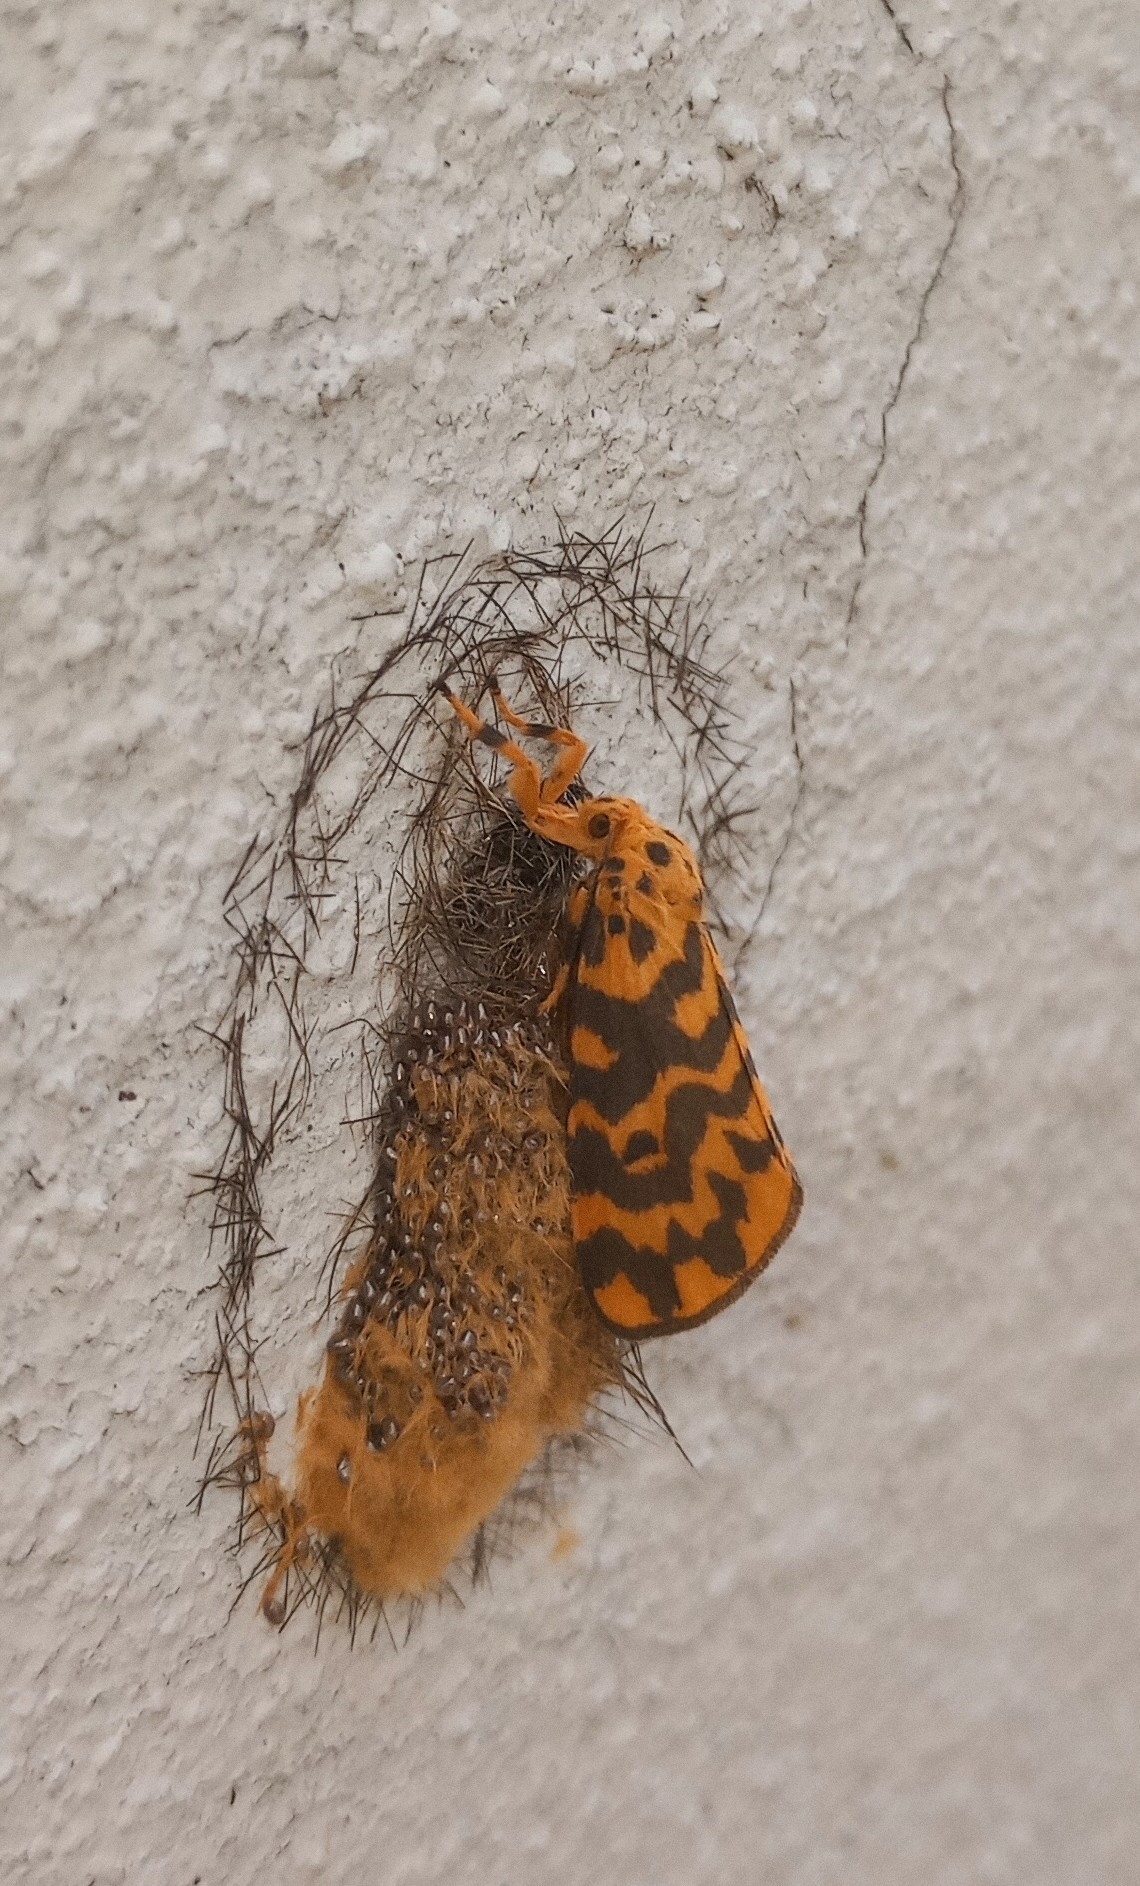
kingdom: Animalia
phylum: Arthropoda
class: Insecta
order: Lepidoptera
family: Erebidae
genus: Nepita
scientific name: Nepita conferta
